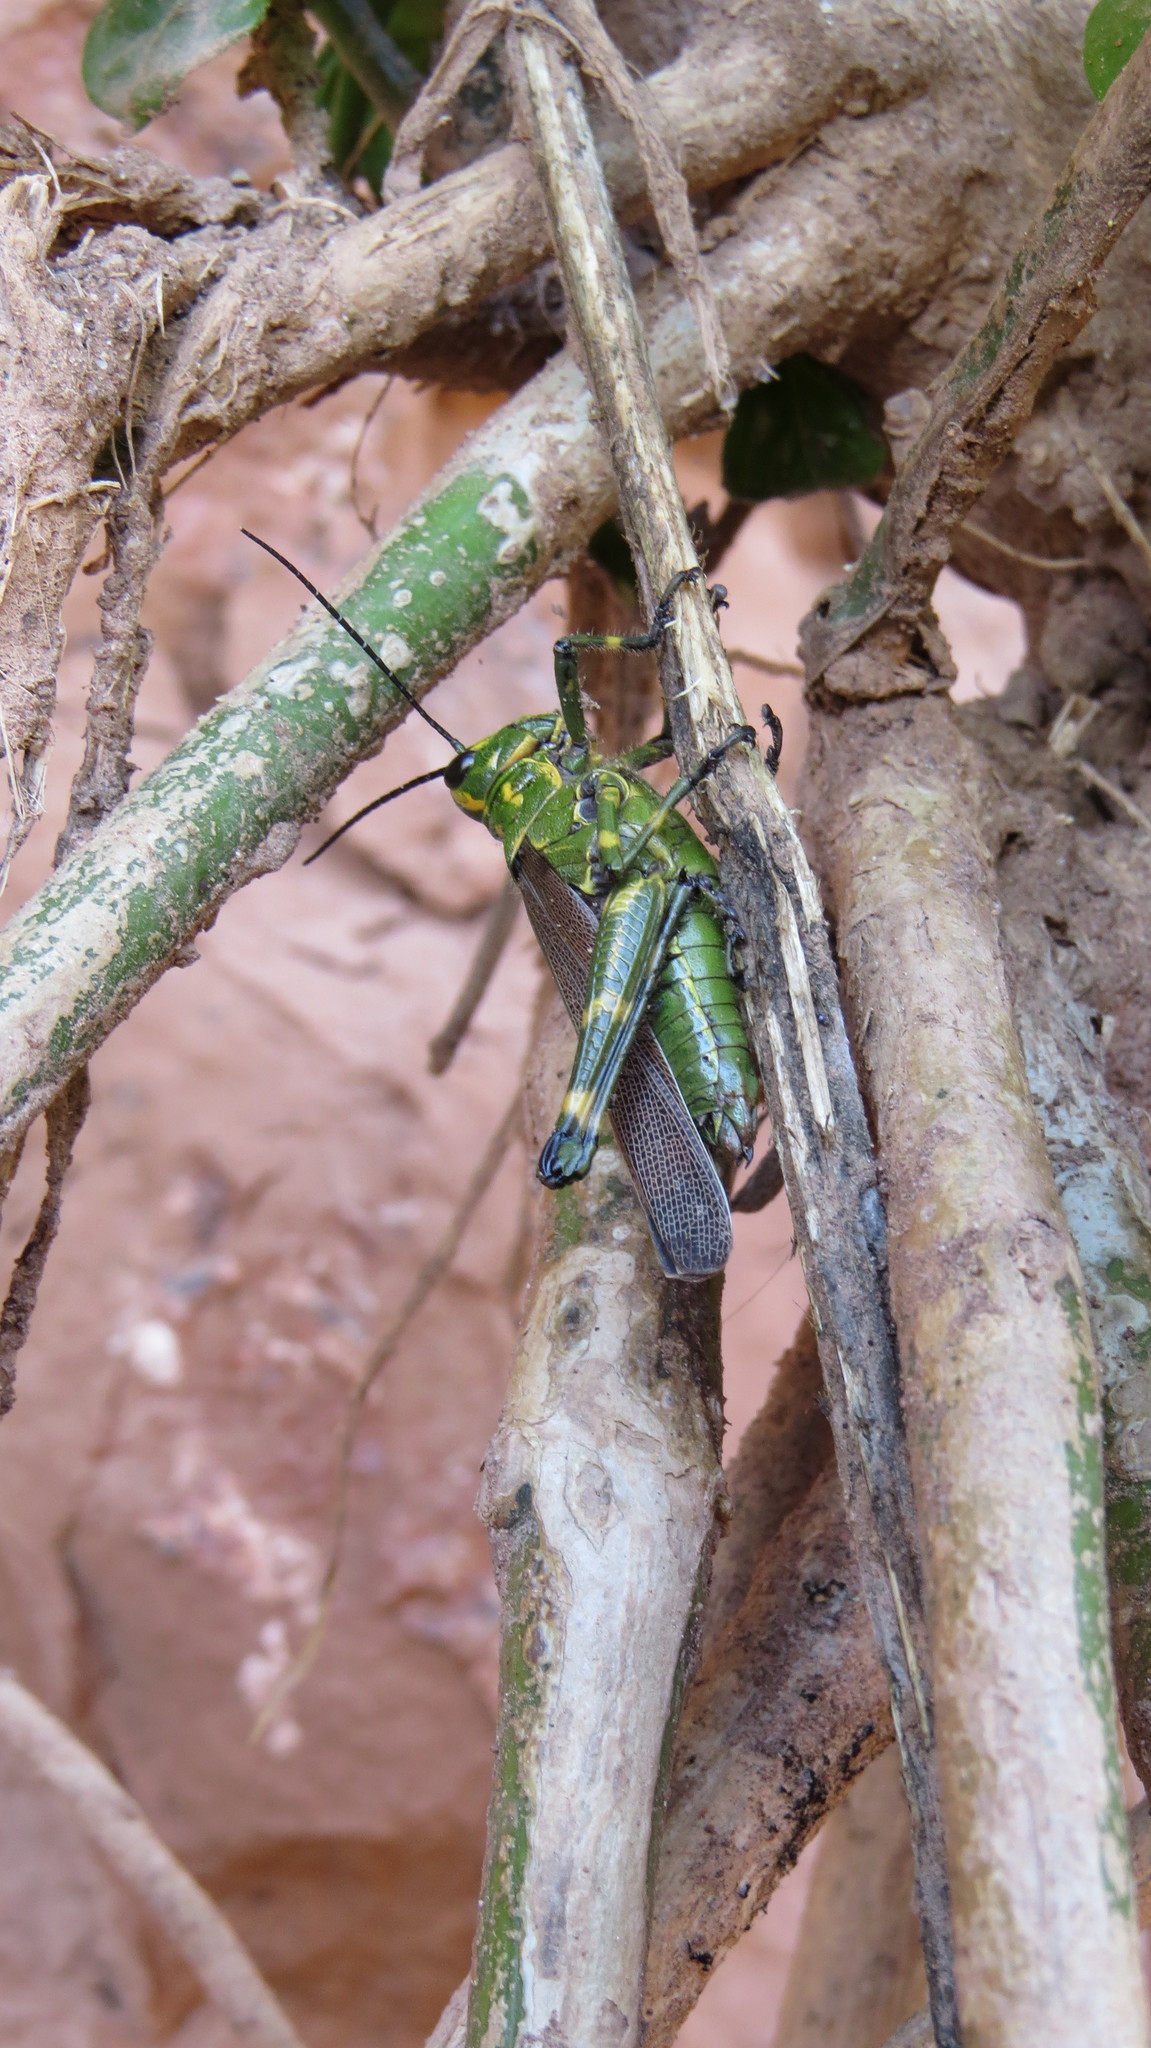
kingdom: Animalia
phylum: Arthropoda
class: Insecta
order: Orthoptera
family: Romaleidae
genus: Chromacris
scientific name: Chromacris speciosa
